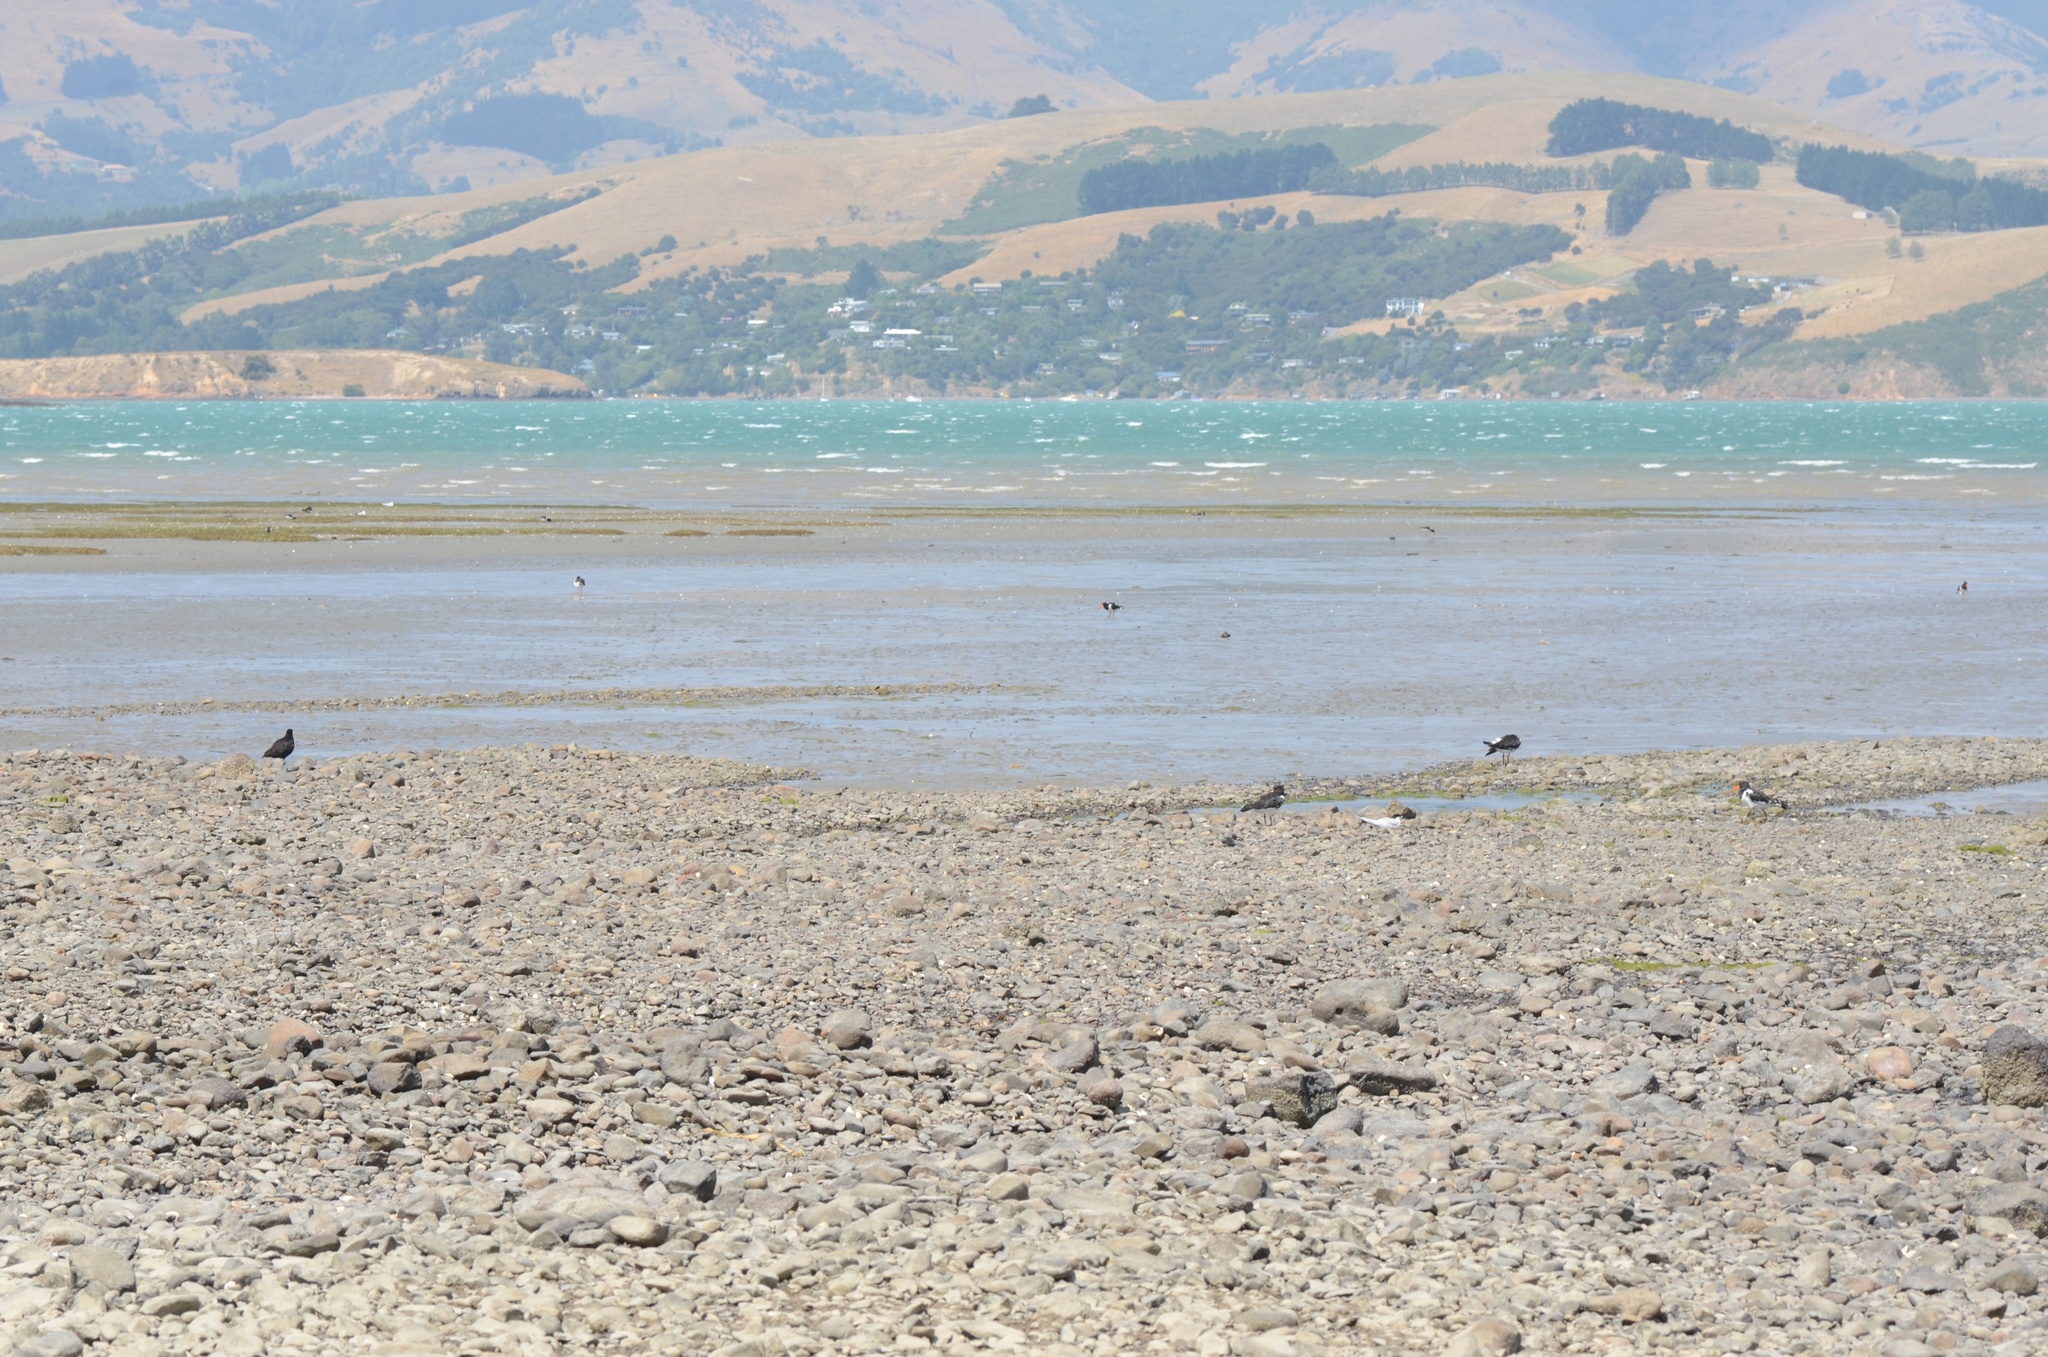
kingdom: Animalia
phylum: Chordata
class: Aves
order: Charadriiformes
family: Haematopodidae
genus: Haematopus
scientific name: Haematopus finschi
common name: South island oystercatcher
